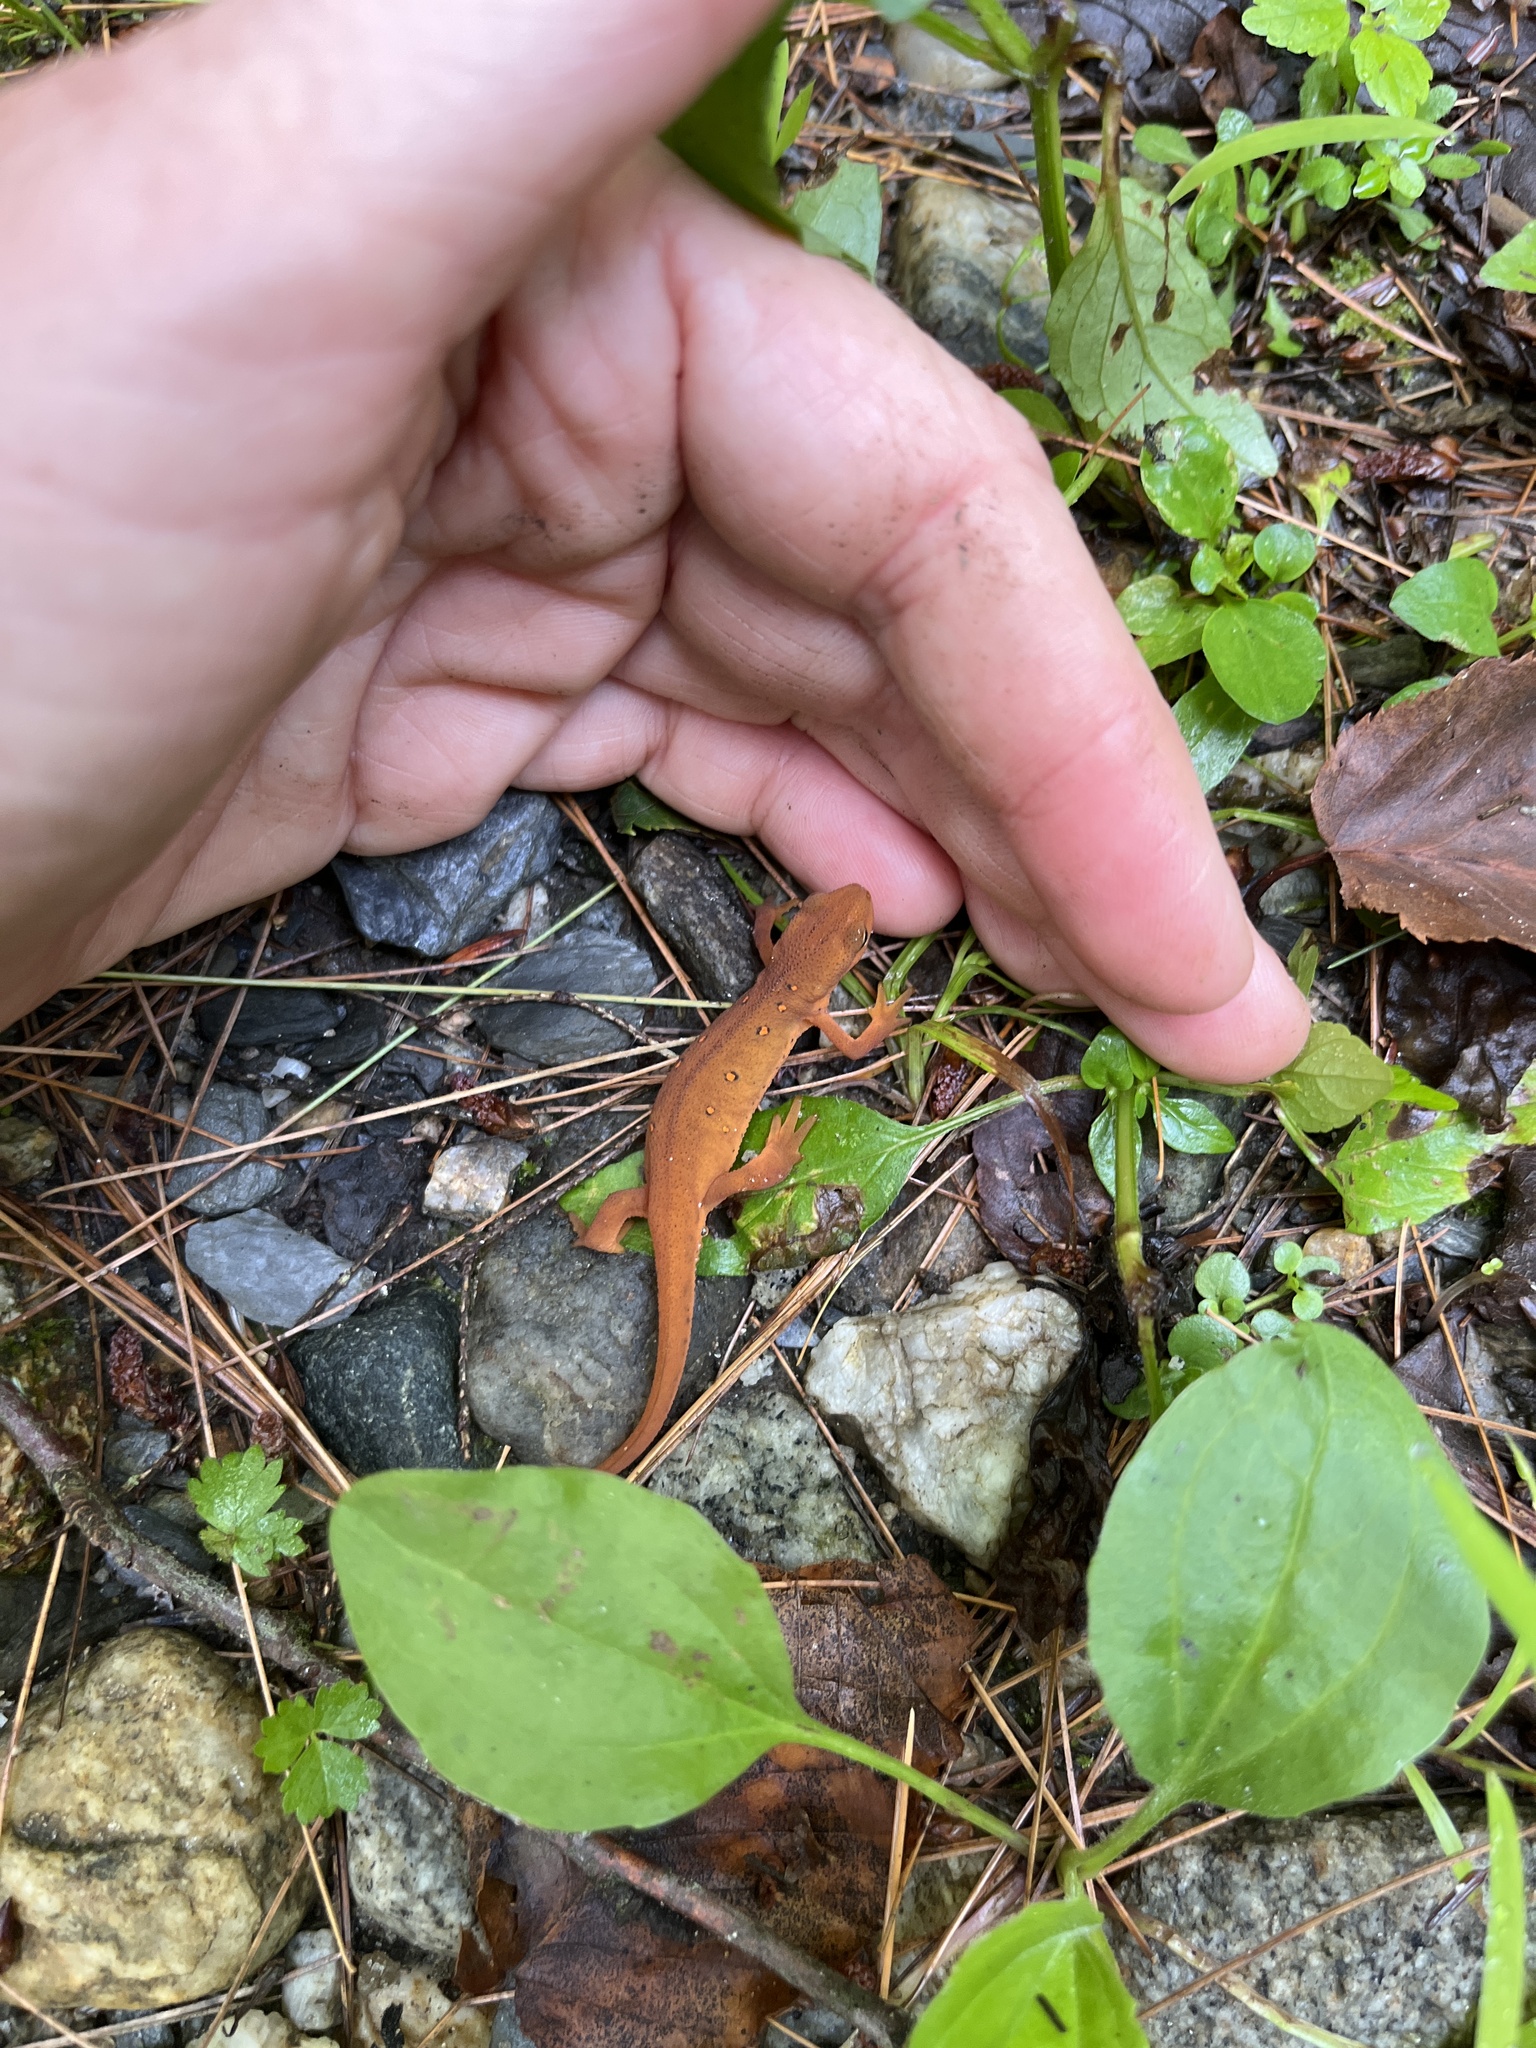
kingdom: Animalia
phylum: Chordata
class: Amphibia
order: Caudata
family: Salamandridae
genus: Notophthalmus
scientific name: Notophthalmus viridescens
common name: Eastern newt
